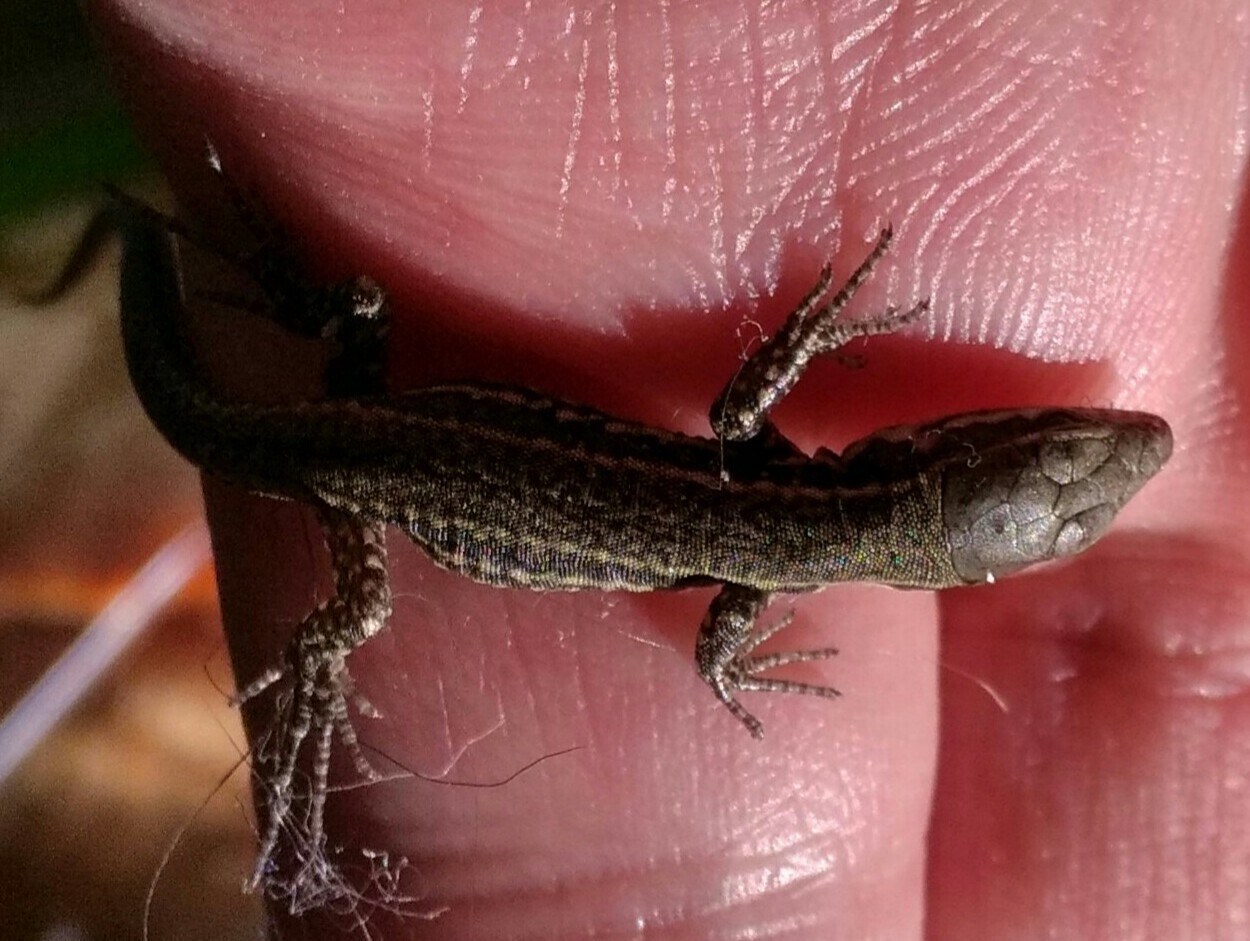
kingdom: Animalia
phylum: Chordata
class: Squamata
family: Lacertidae
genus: Podarcis
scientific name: Podarcis muralis
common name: Common wall lizard
